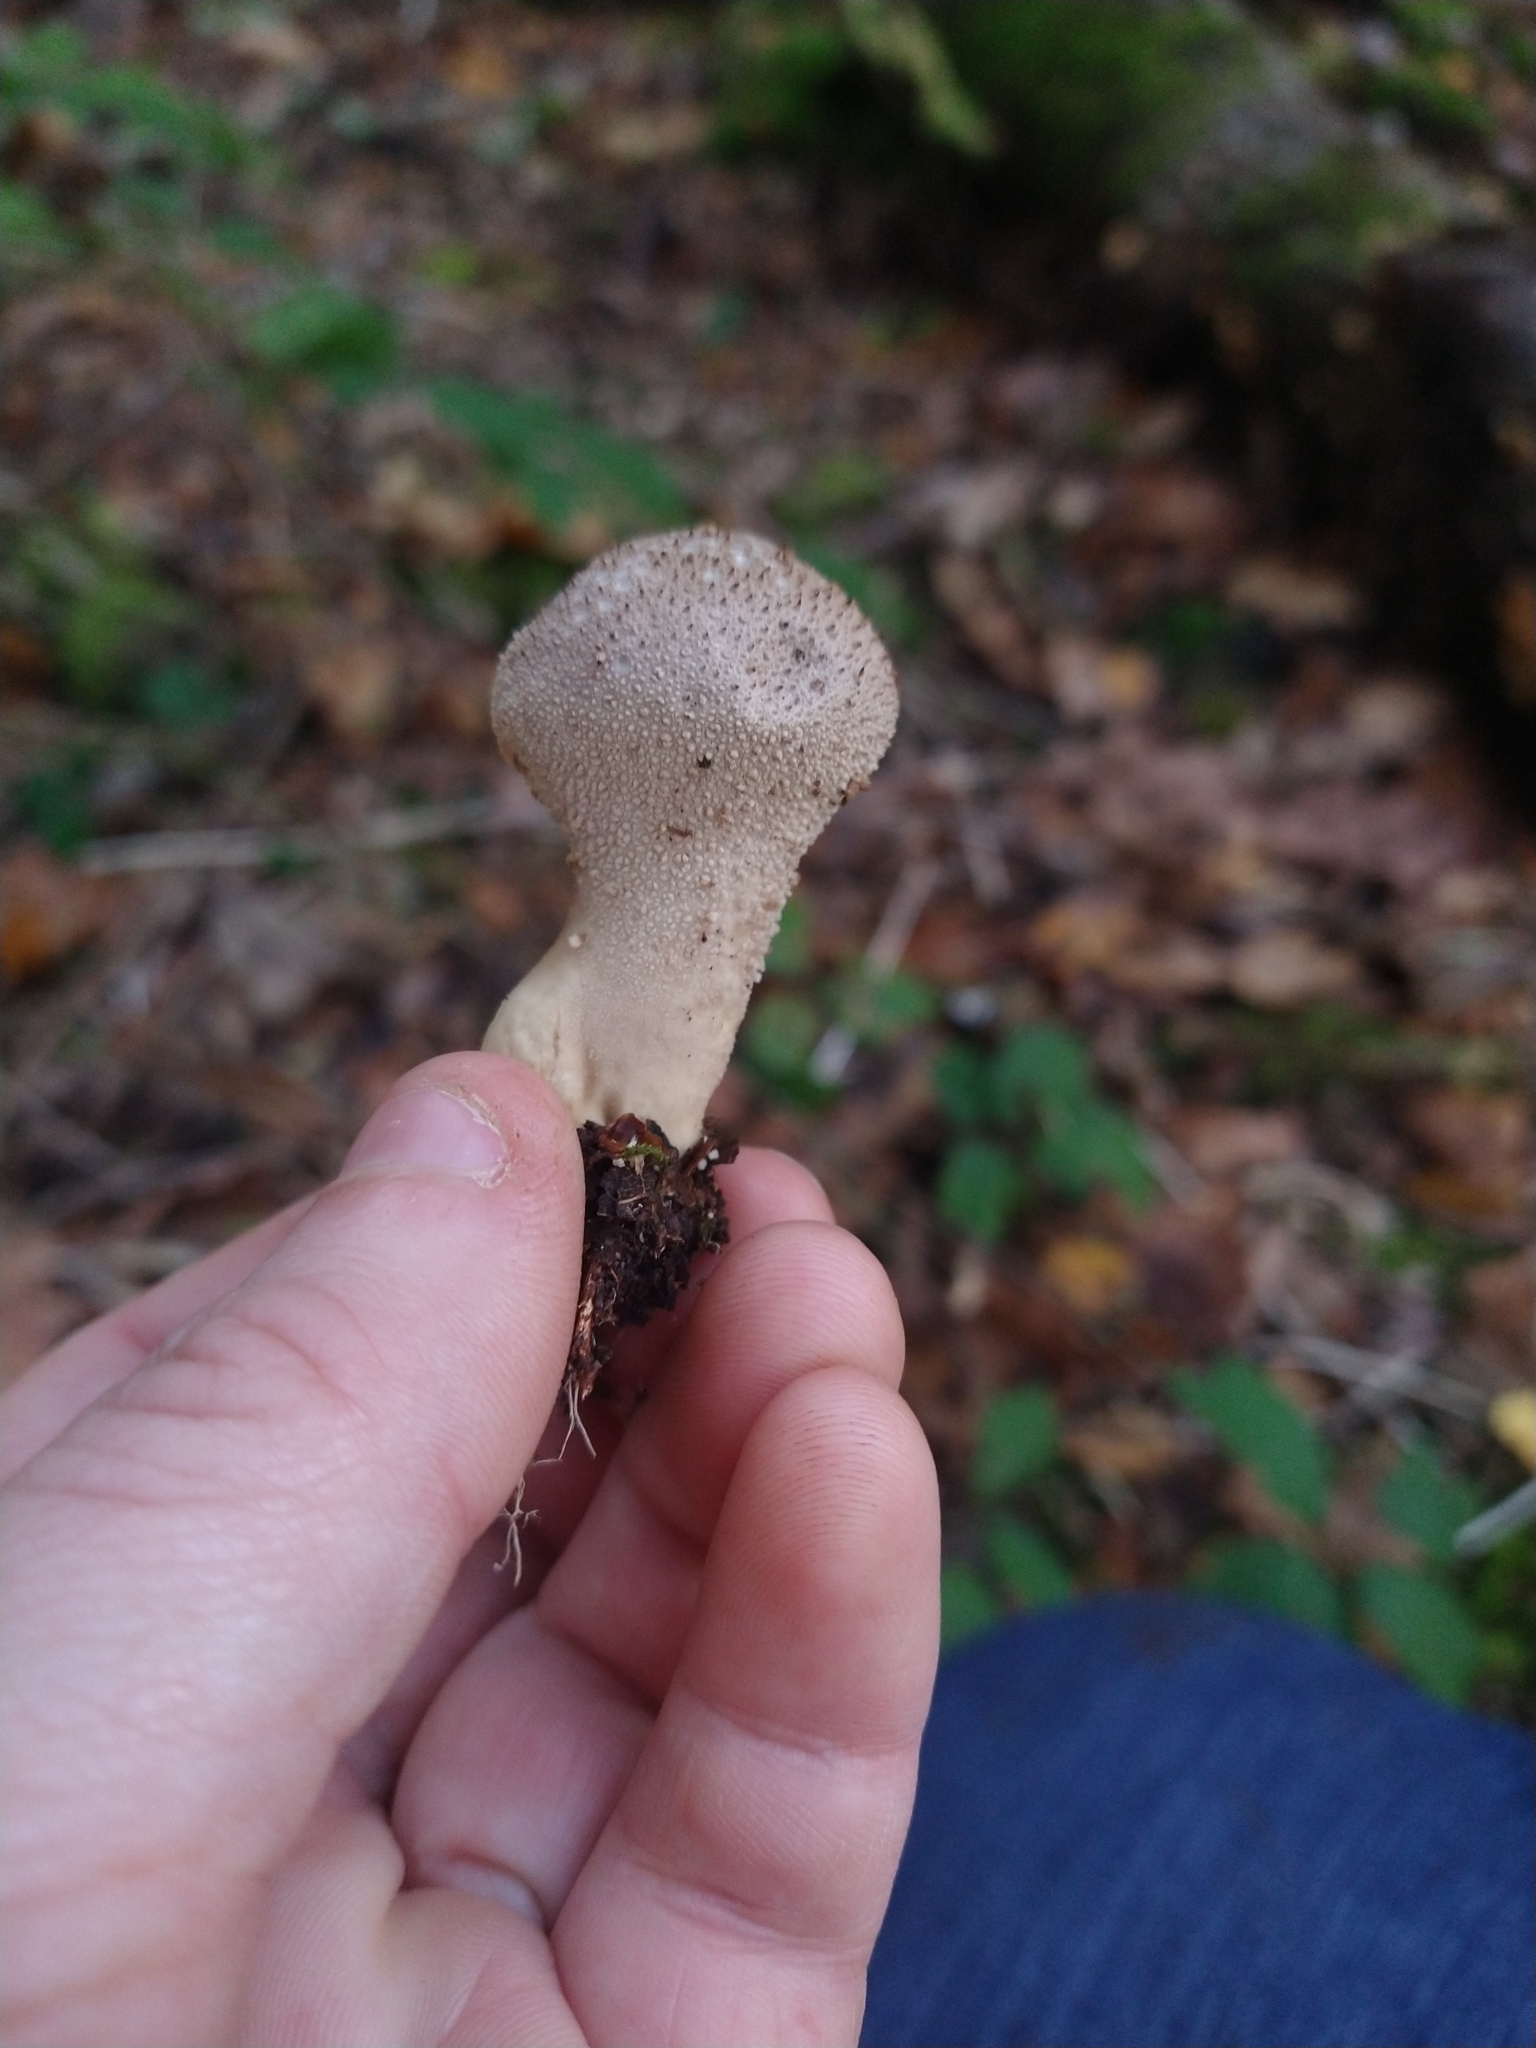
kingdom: Fungi
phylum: Basidiomycota
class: Agaricomycetes
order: Agaricales
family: Lycoperdaceae
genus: Lycoperdon
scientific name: Lycoperdon perlatum
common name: Common puffball
